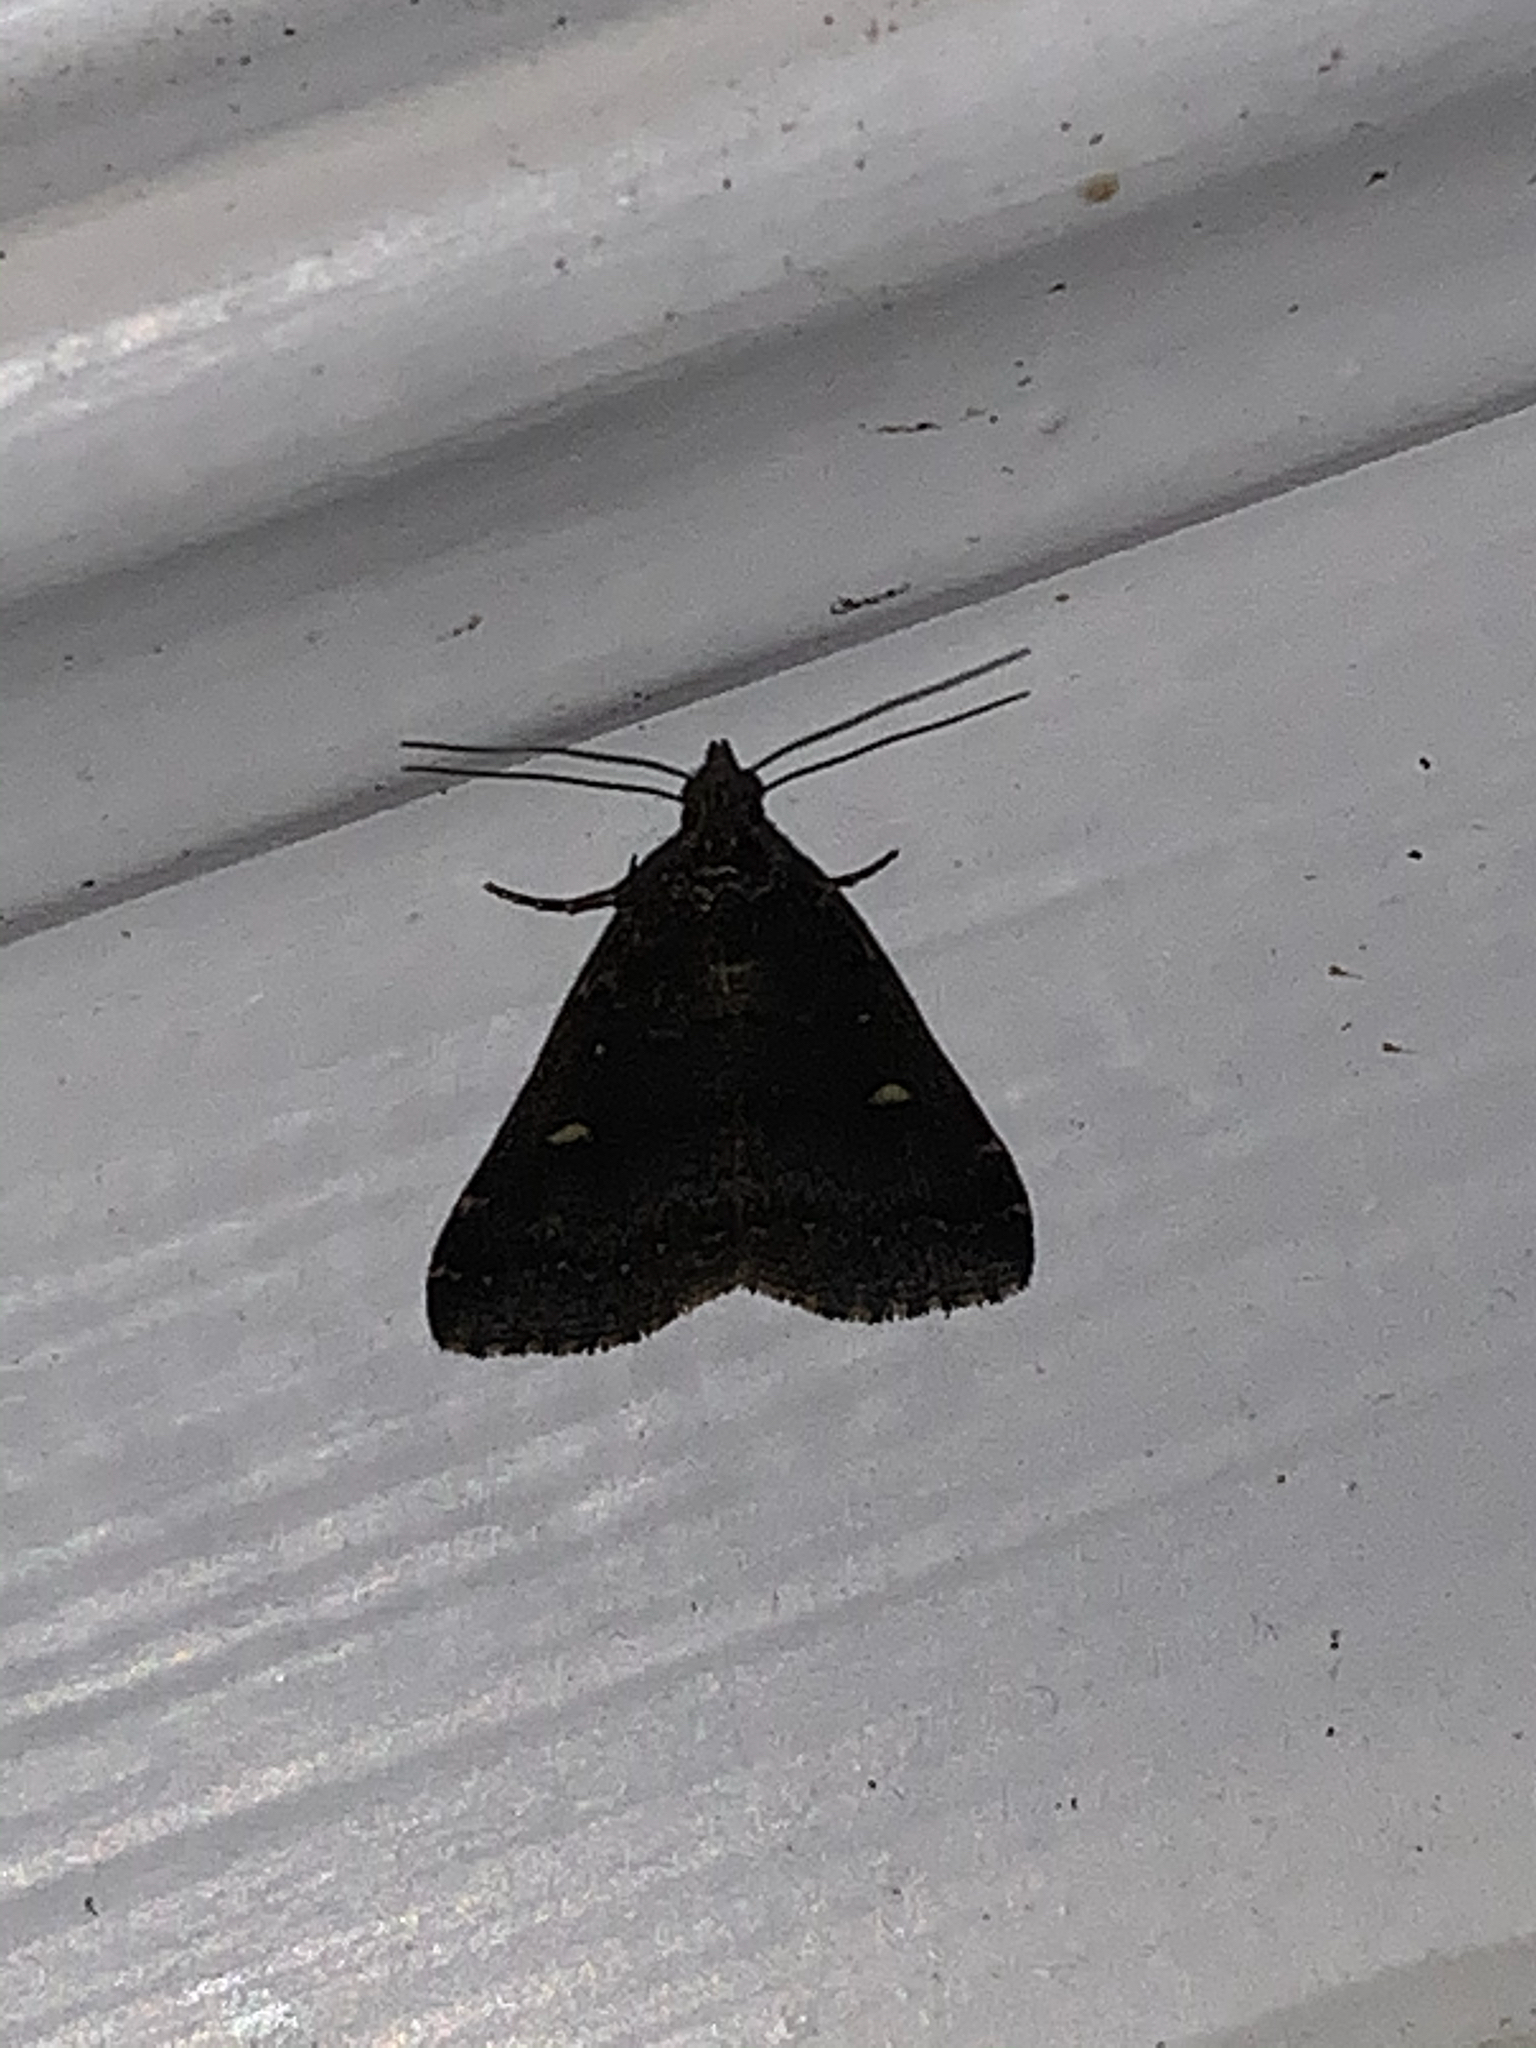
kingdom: Animalia
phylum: Arthropoda
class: Insecta
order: Lepidoptera
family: Erebidae
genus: Tetanolita
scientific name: Tetanolita mynesalis
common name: Smoky tetanolita moth
